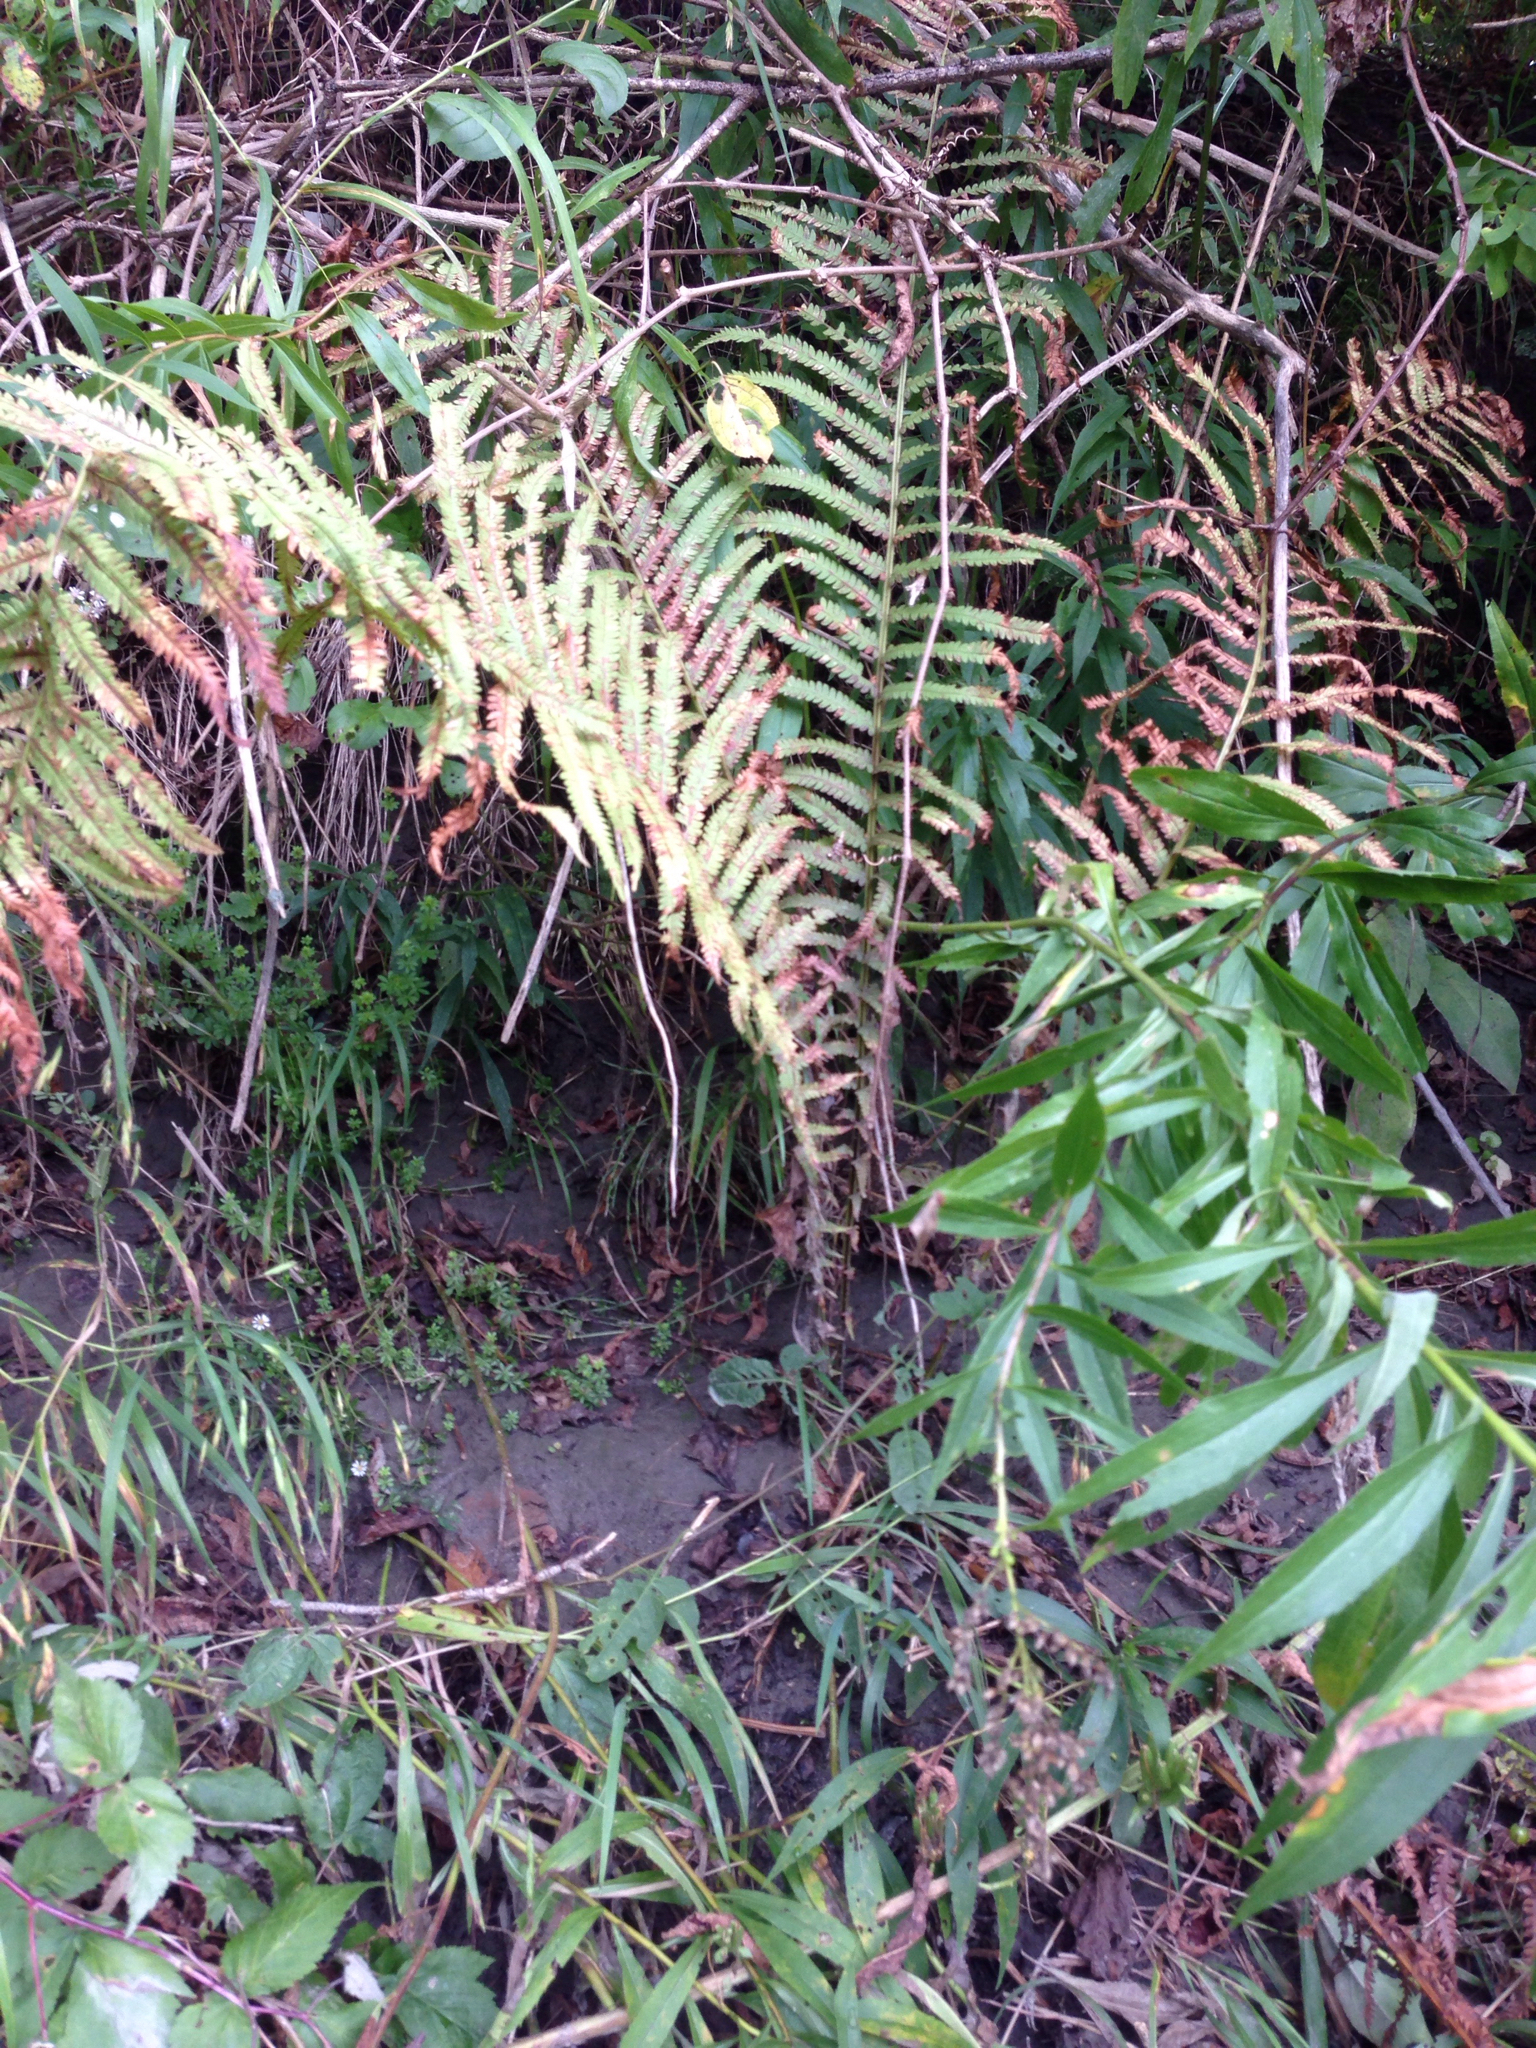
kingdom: Plantae
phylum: Tracheophyta
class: Polypodiopsida
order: Polypodiales
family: Onocleaceae
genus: Matteuccia
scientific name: Matteuccia struthiopteris
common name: Ostrich fern
